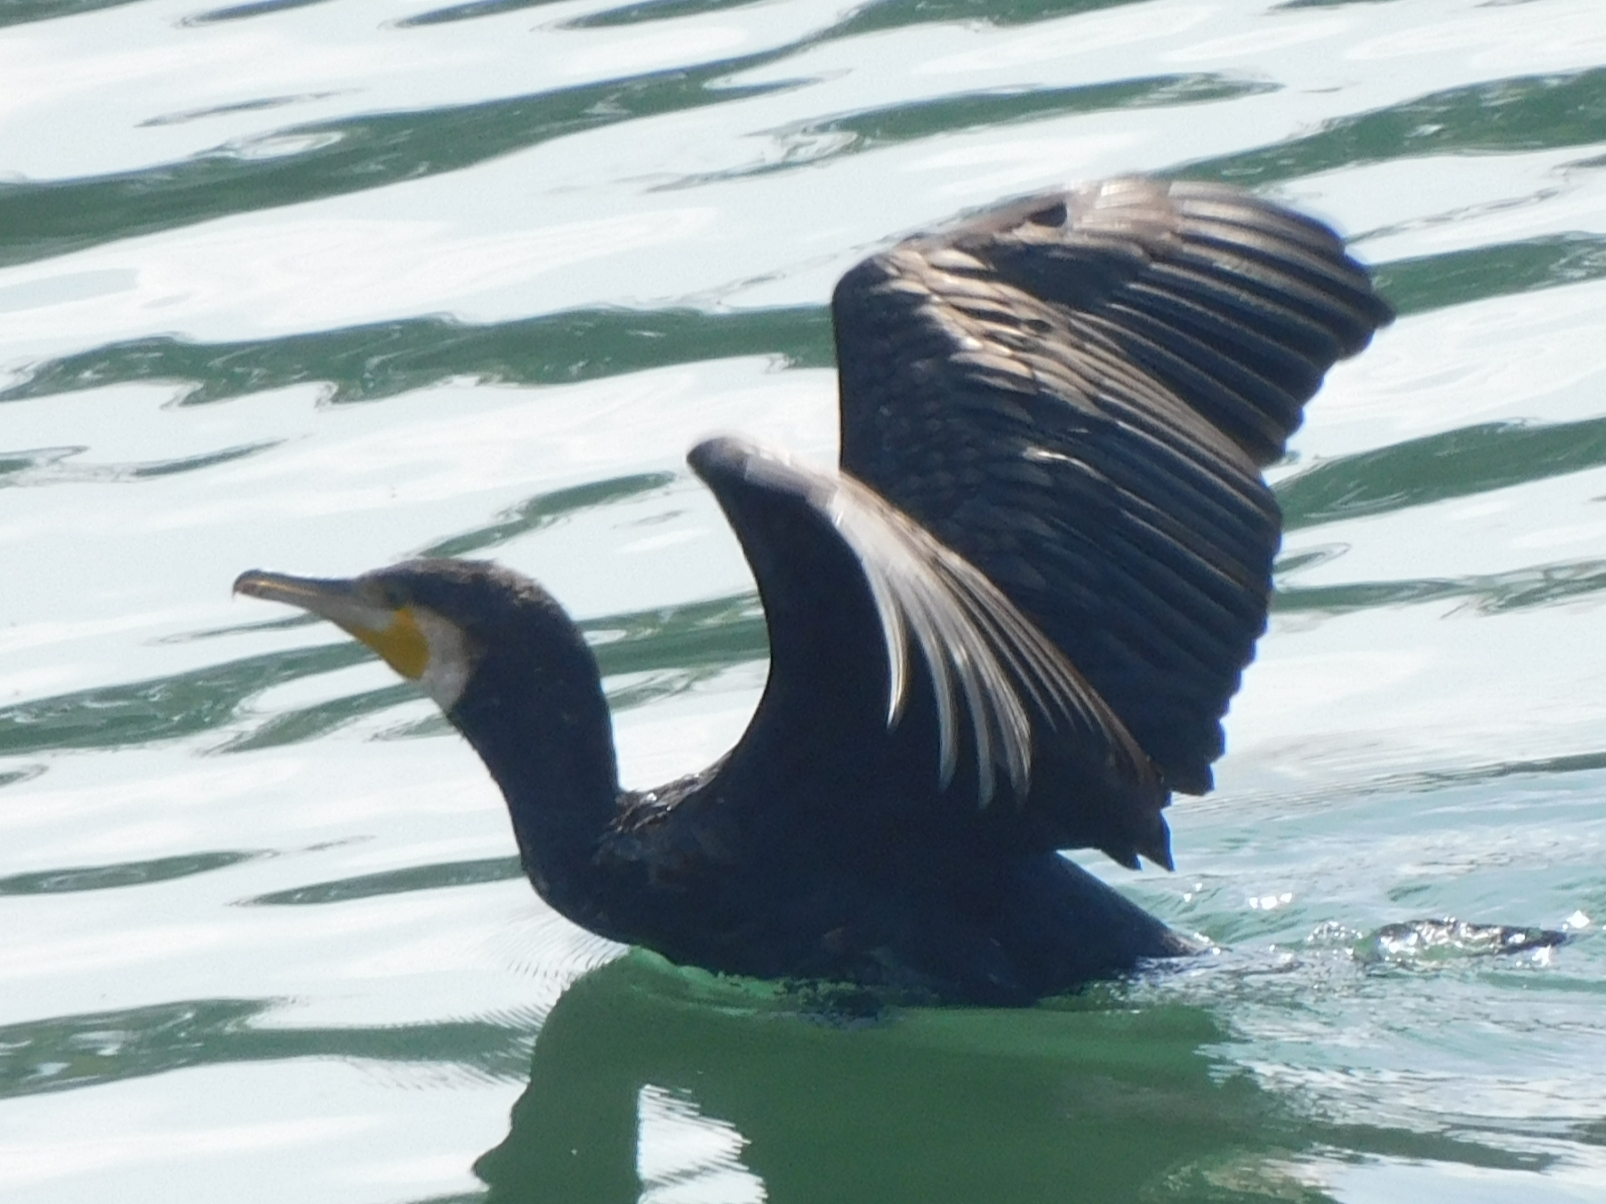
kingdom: Animalia
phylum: Chordata
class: Aves
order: Suliformes
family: Phalacrocoracidae
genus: Phalacrocorax
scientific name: Phalacrocorax carbo
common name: Great cormorant
